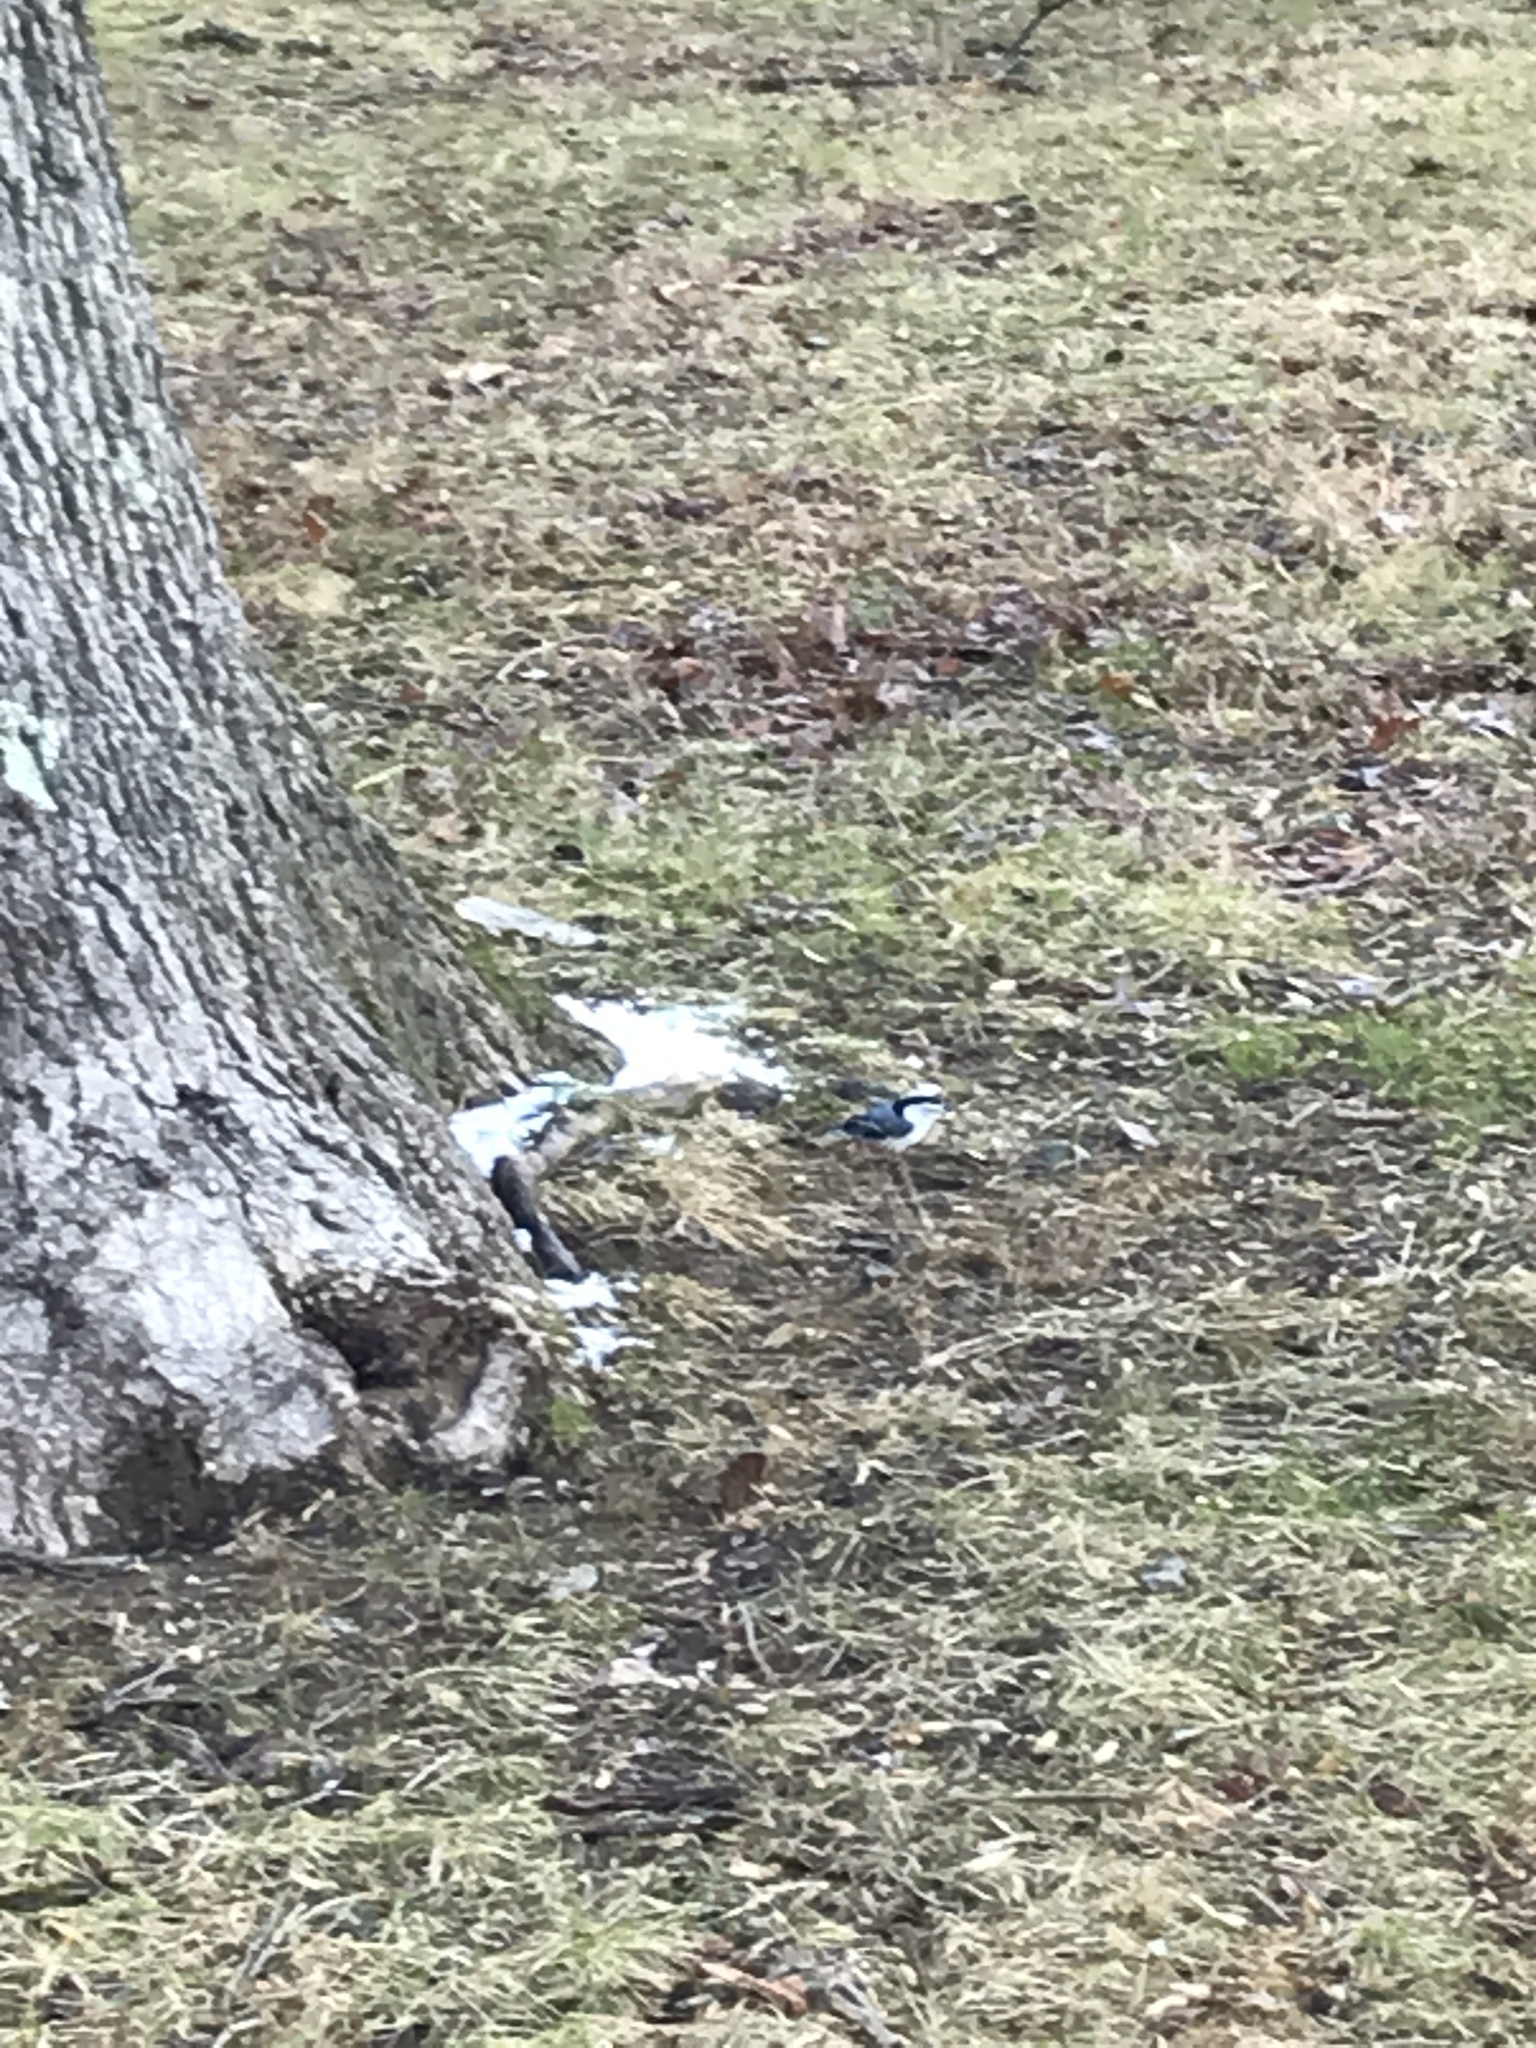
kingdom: Animalia
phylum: Chordata
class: Aves
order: Passeriformes
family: Sittidae
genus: Sitta
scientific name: Sitta carolinensis
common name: White-breasted nuthatch
